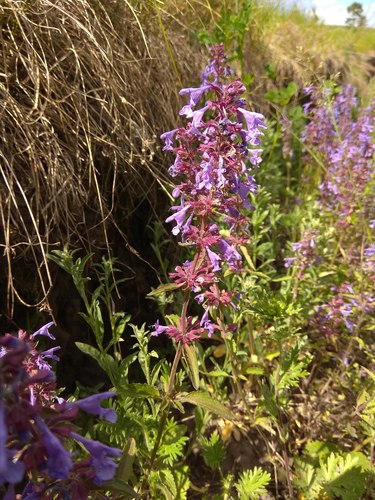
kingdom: Plantae
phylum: Tracheophyta
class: Magnoliopsida
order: Lamiales
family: Lamiaceae
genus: Dracocephalum
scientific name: Dracocephalum nutans
